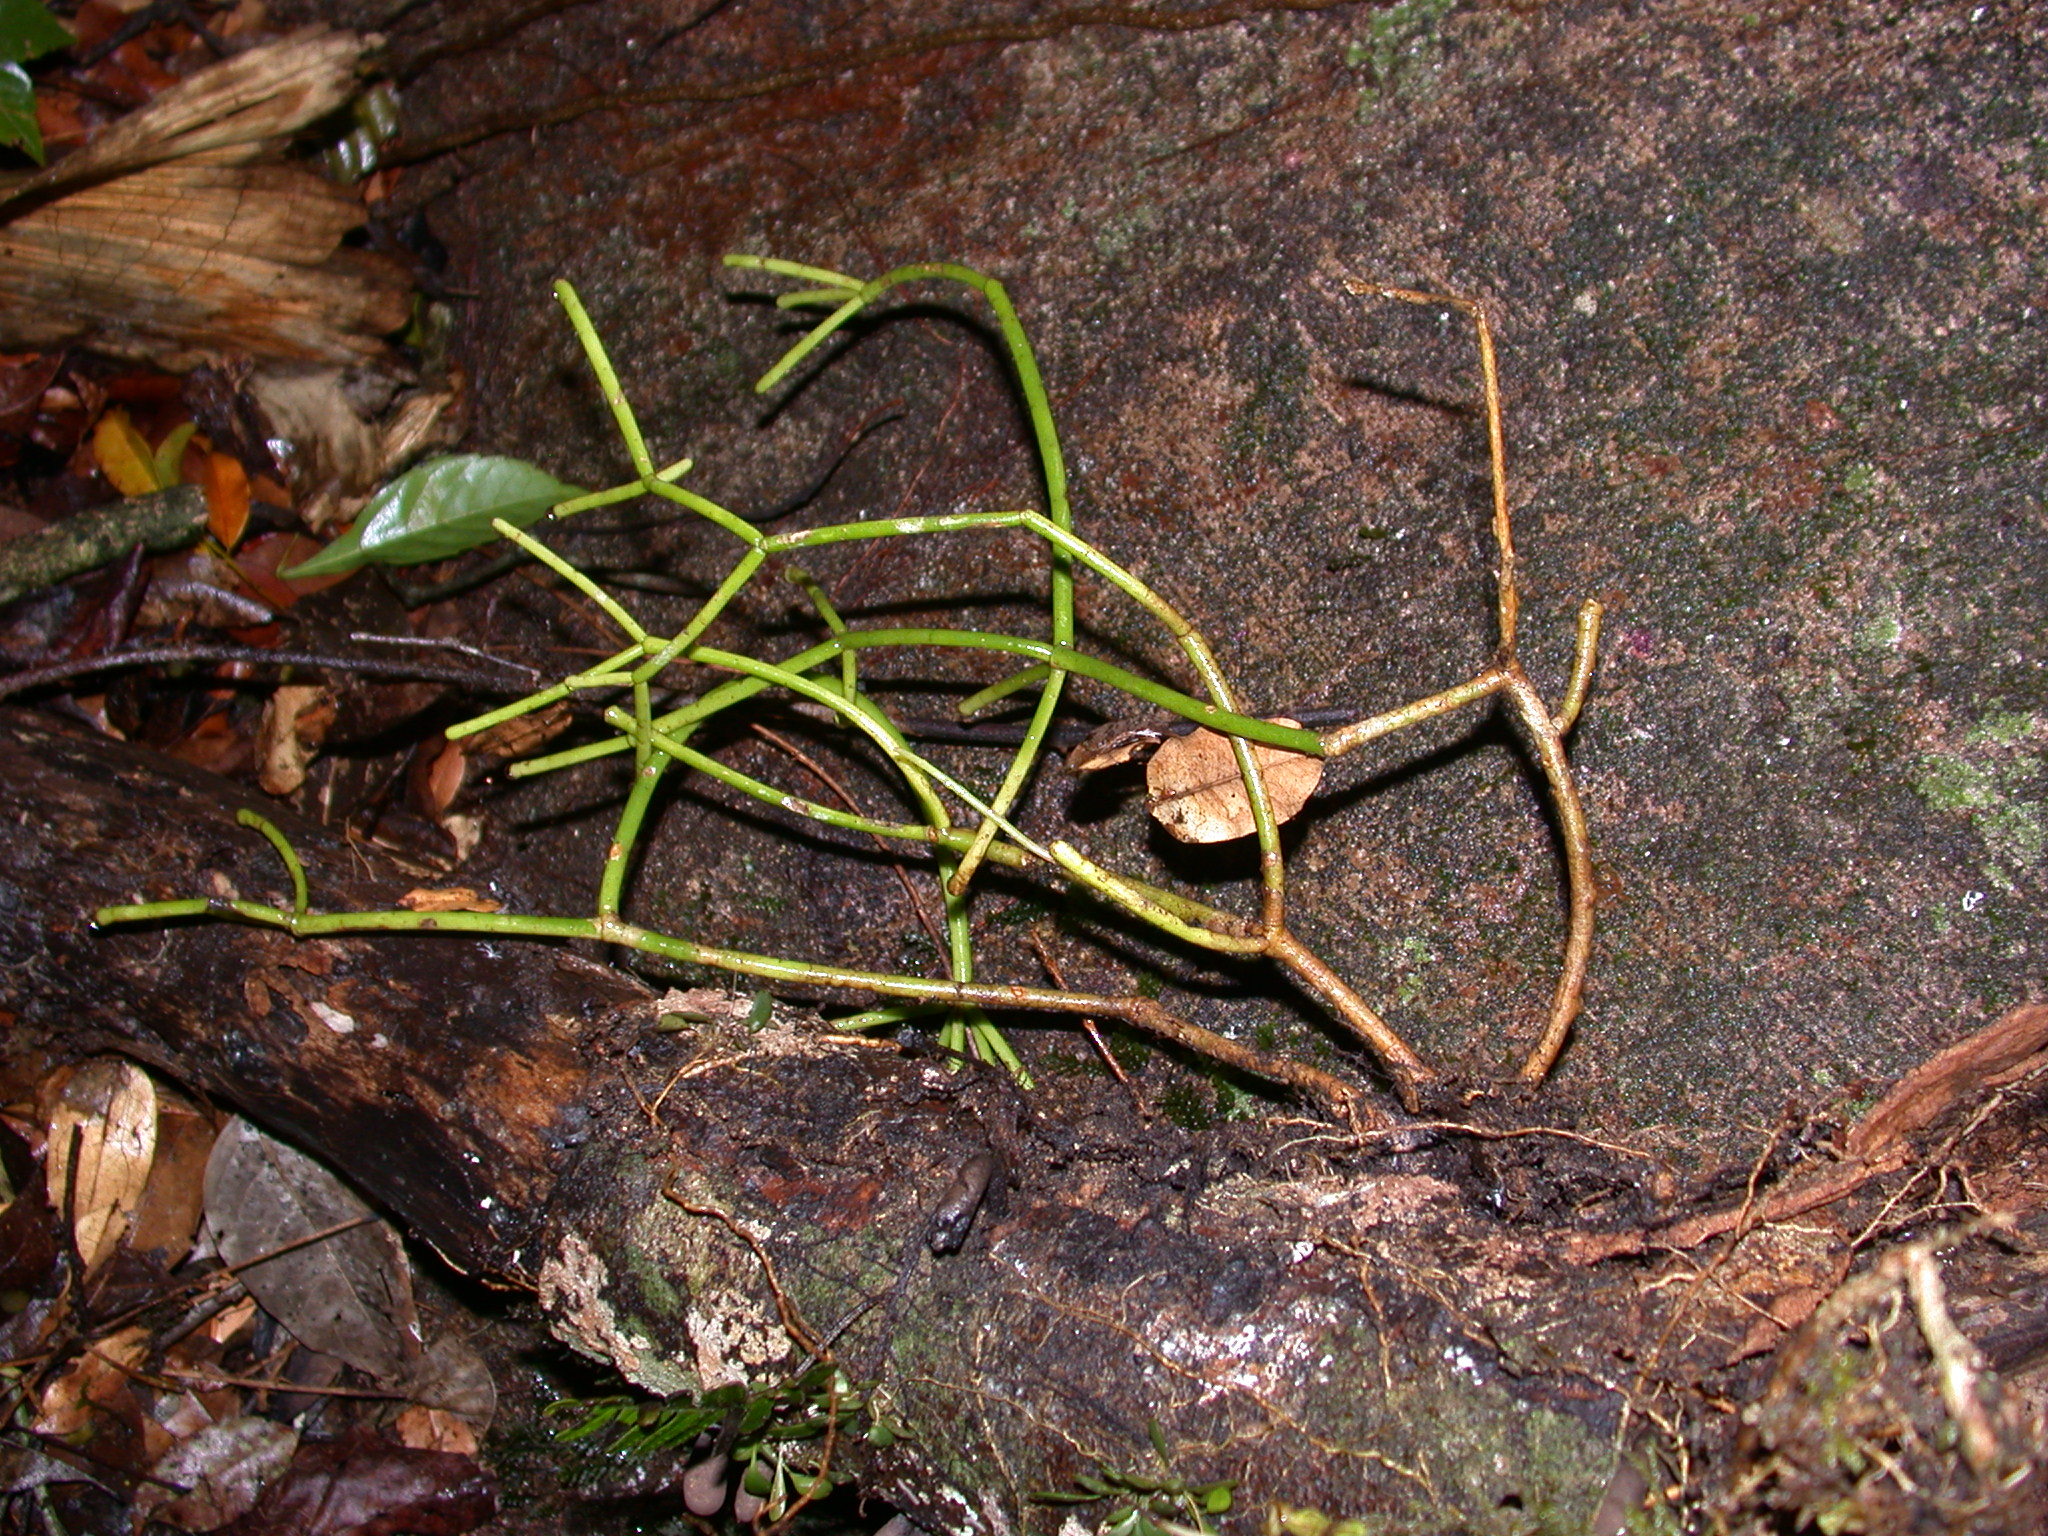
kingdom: Plantae
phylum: Tracheophyta
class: Magnoliopsida
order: Caryophyllales
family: Cactaceae
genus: Rhipsalis
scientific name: Rhipsalis baccifera
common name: Mistletoe cactus
